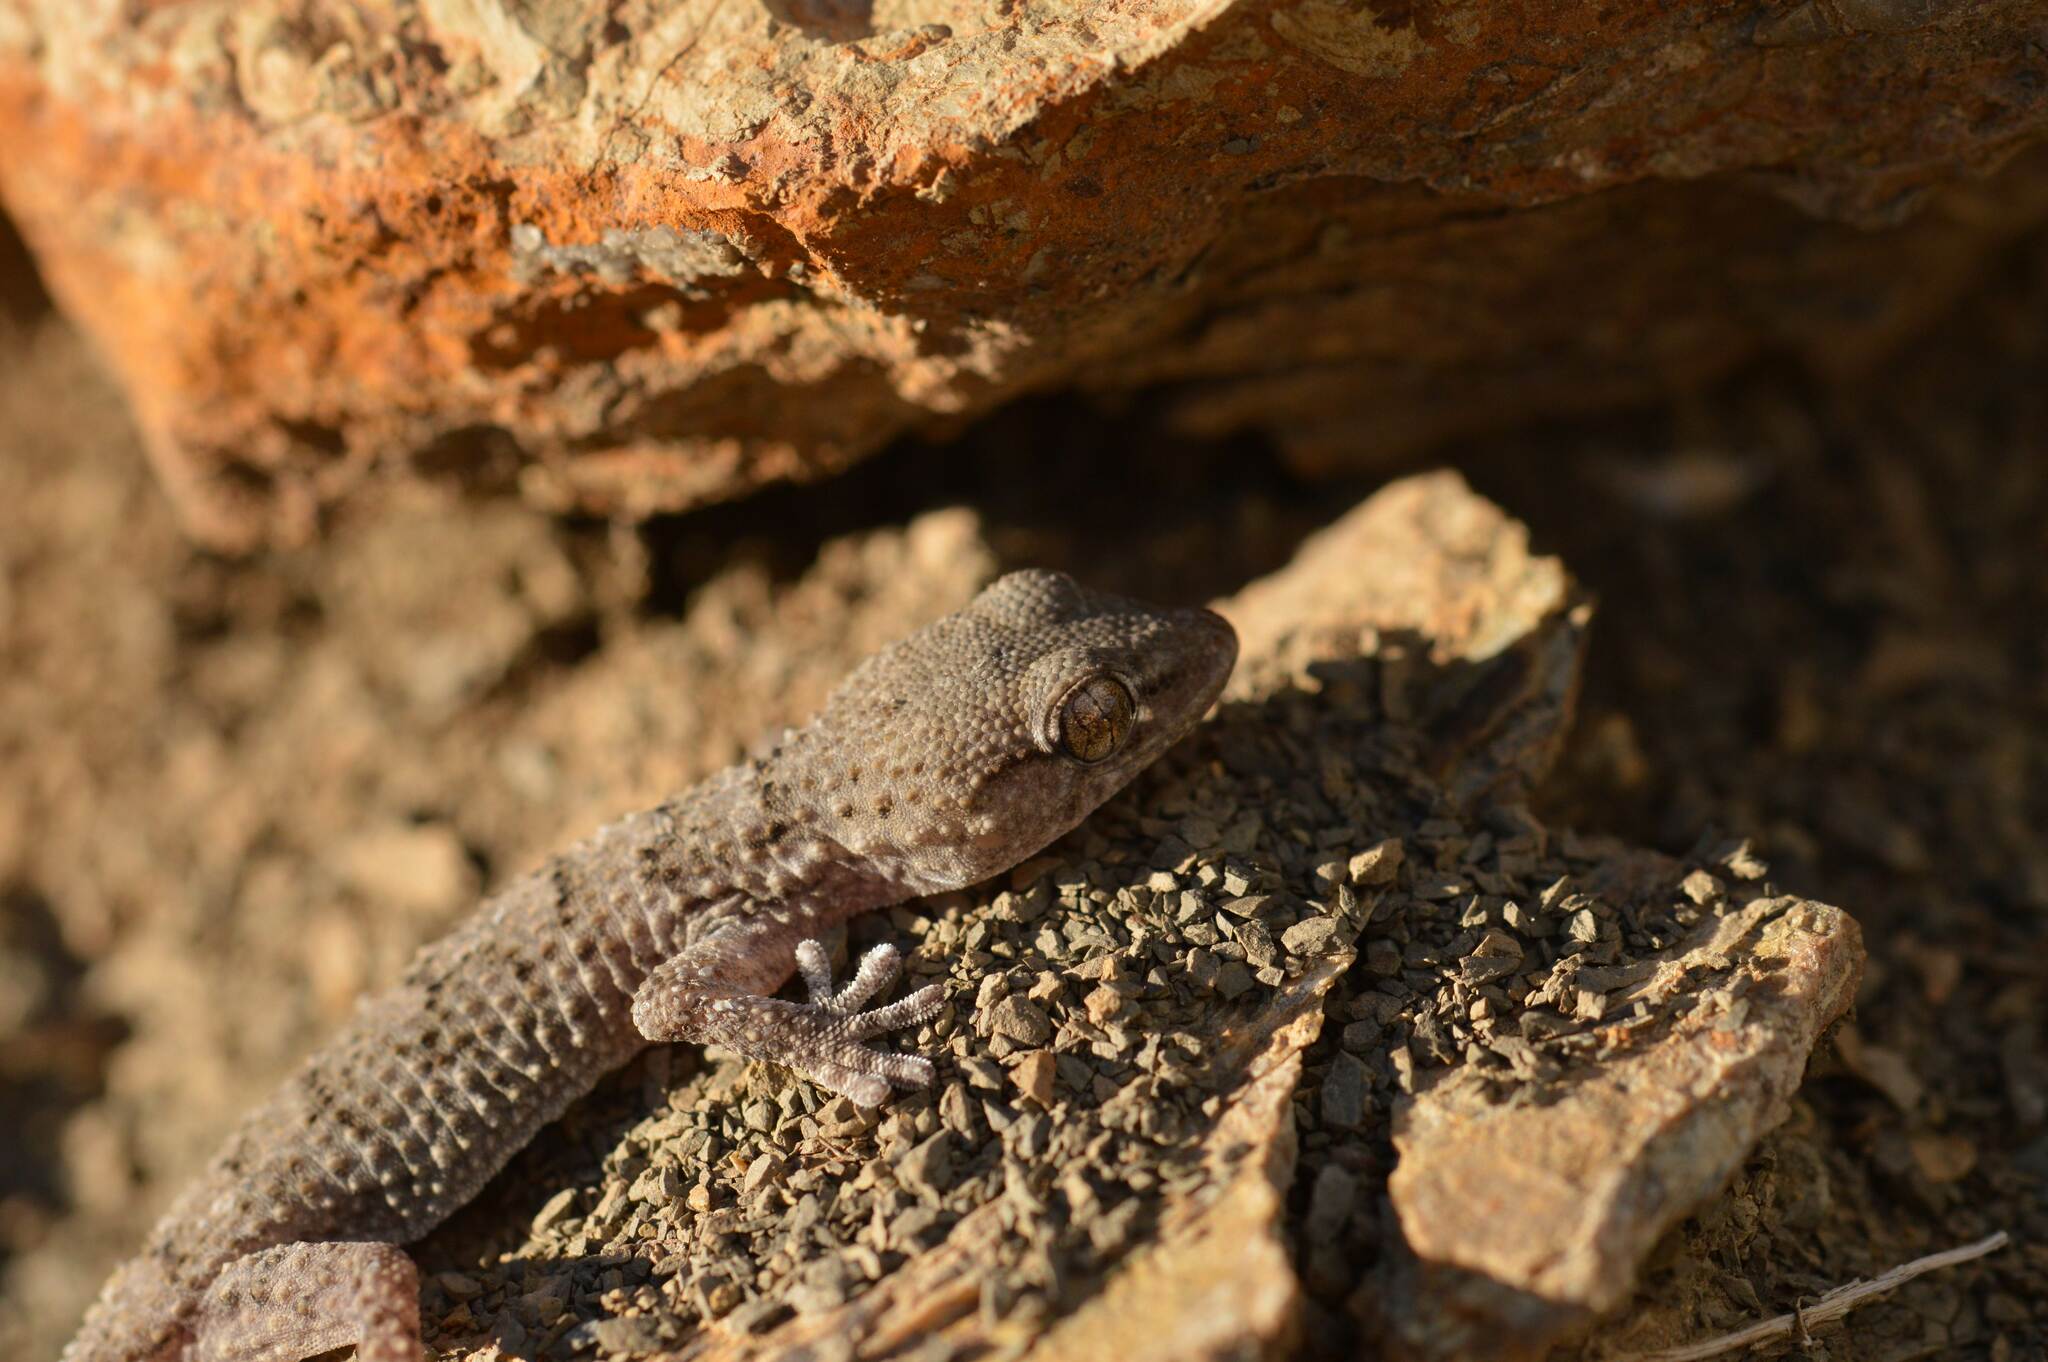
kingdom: Animalia
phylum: Chordata
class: Squamata
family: Phyllodactylidae
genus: Tarentola
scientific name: Tarentola mauritanica
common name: Moorish gecko
